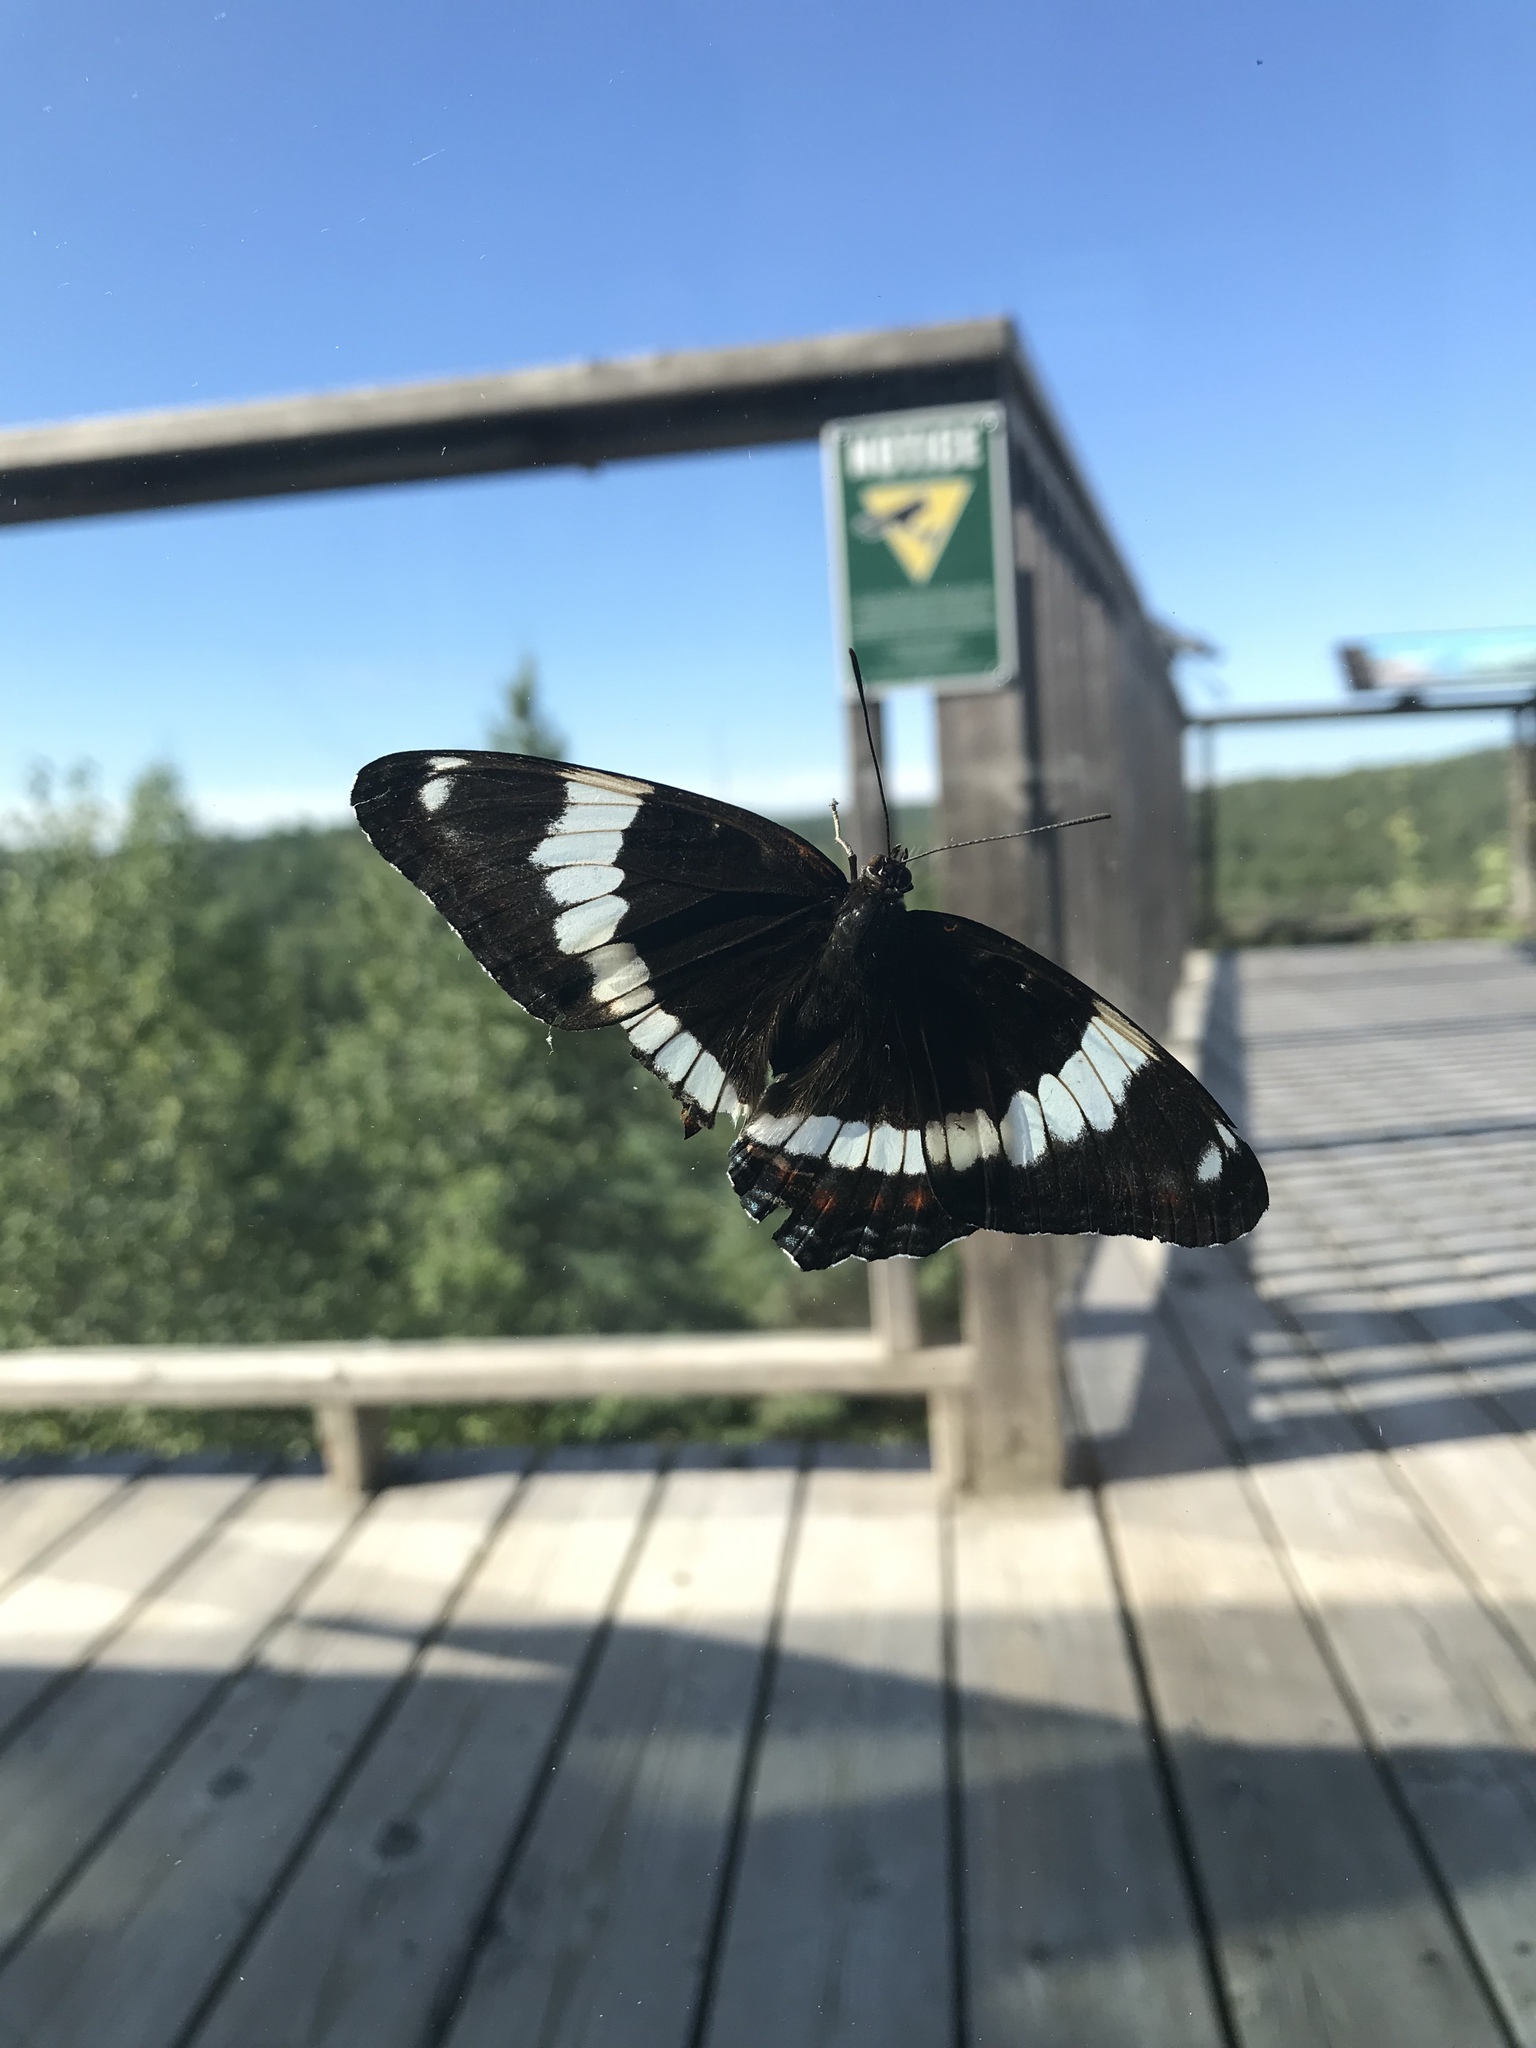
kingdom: Animalia
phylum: Arthropoda
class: Insecta
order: Lepidoptera
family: Nymphalidae
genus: Limenitis
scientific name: Limenitis arthemis
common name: Red-spotted admiral
